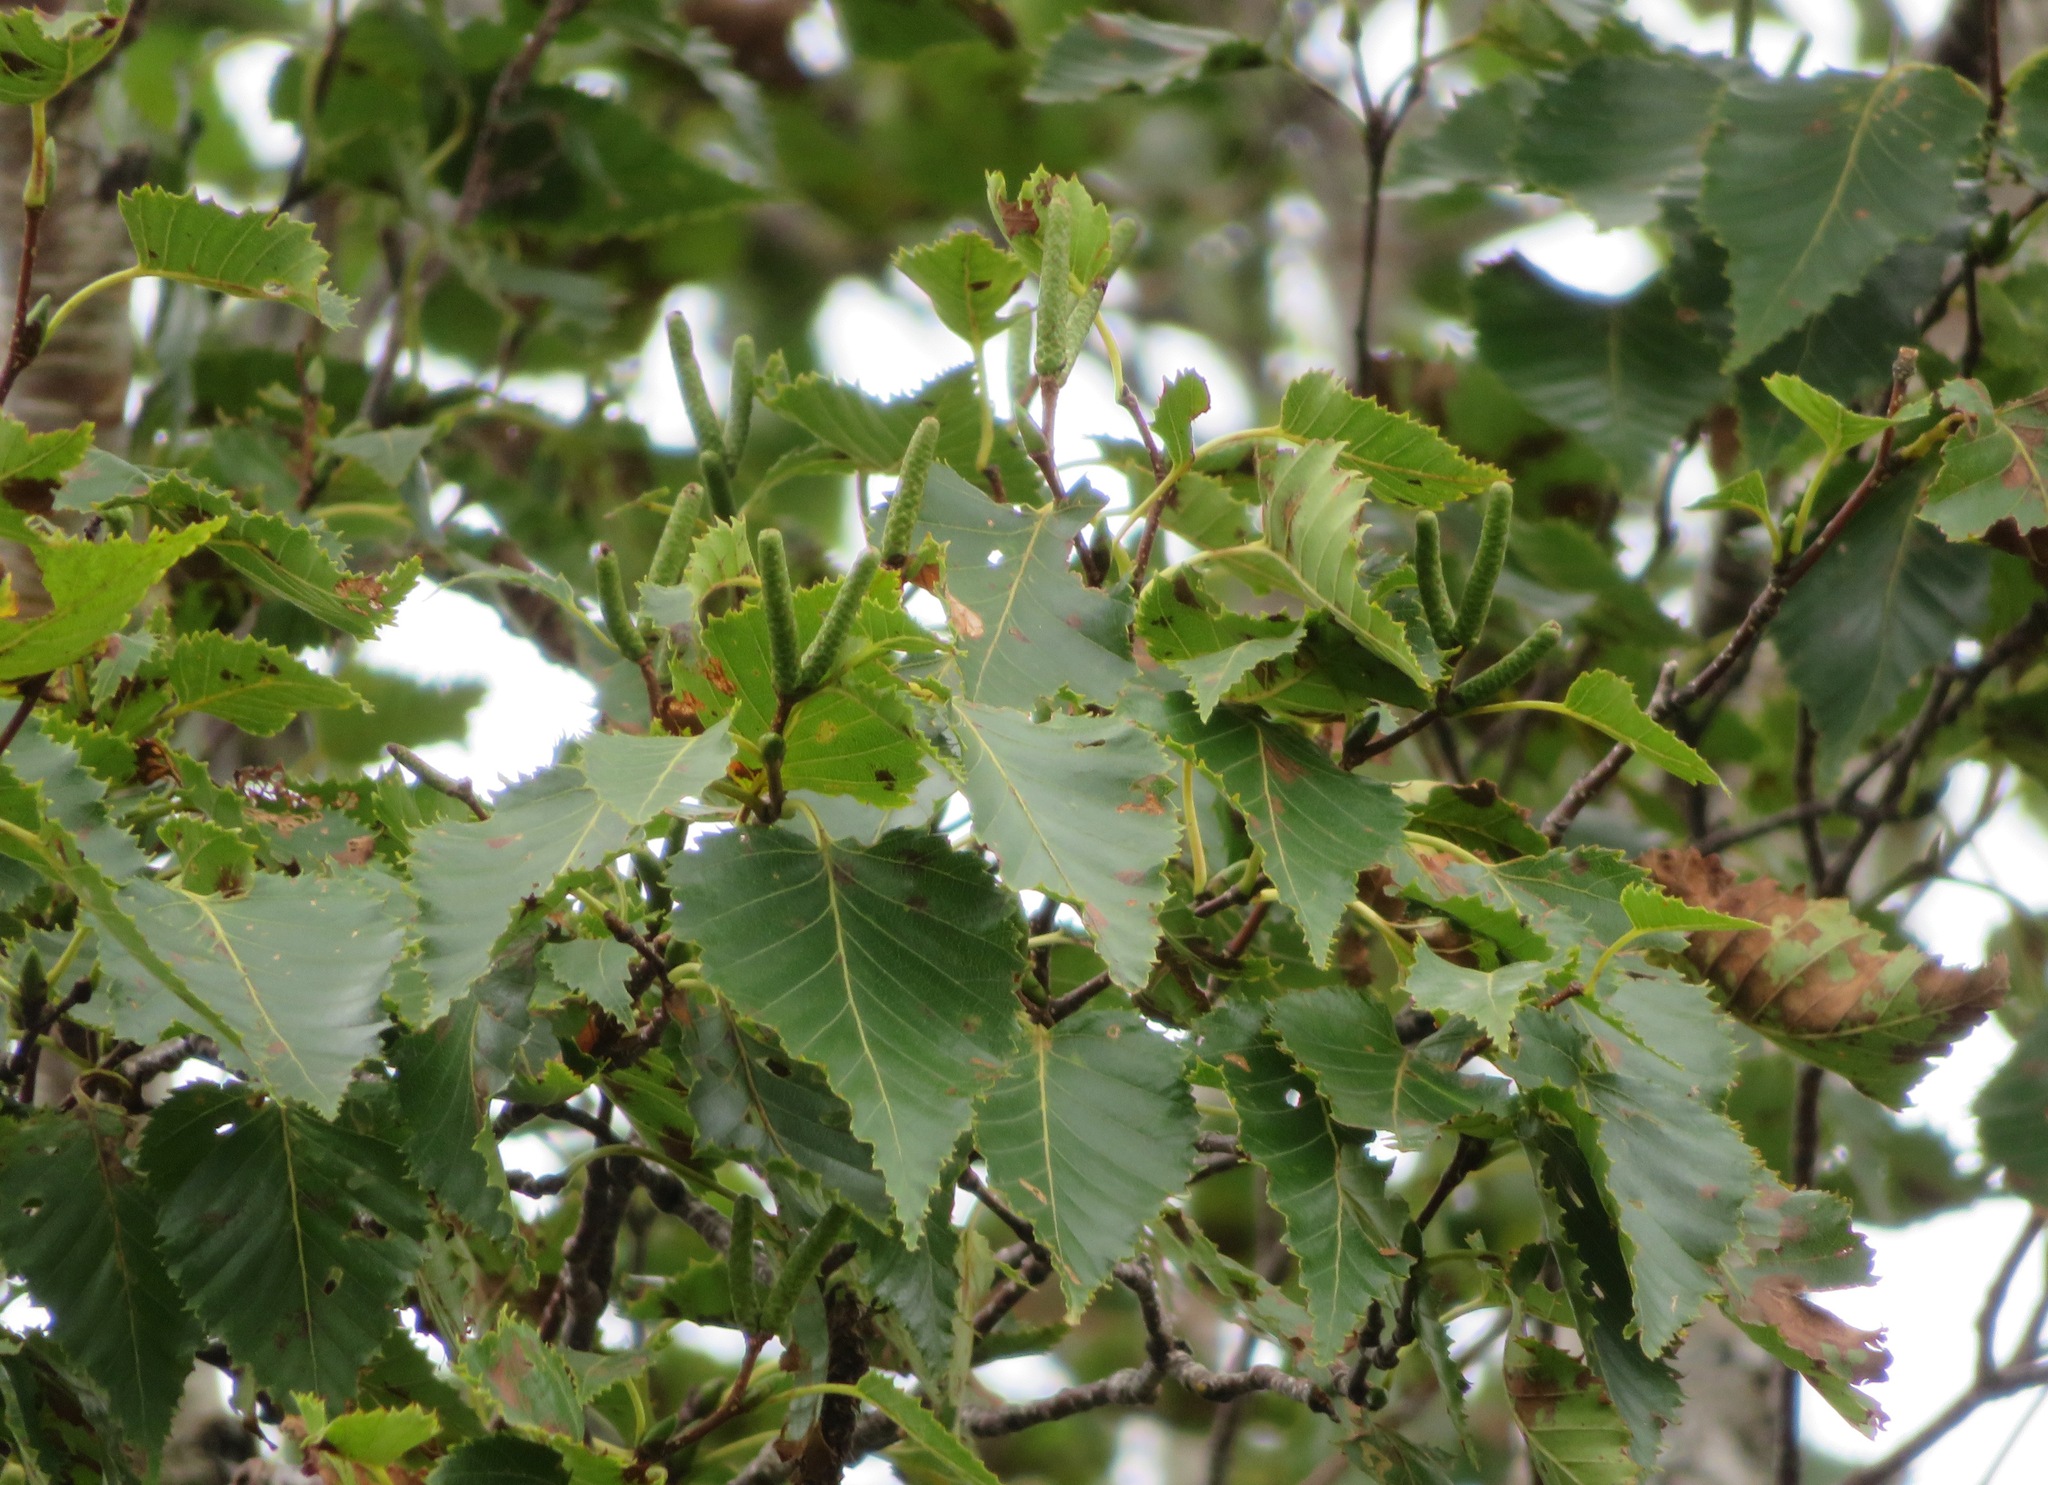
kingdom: Plantae
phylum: Tracheophyta
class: Magnoliopsida
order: Fagales
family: Betulaceae
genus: Betula
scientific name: Betula ermanii
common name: Erman's birch
